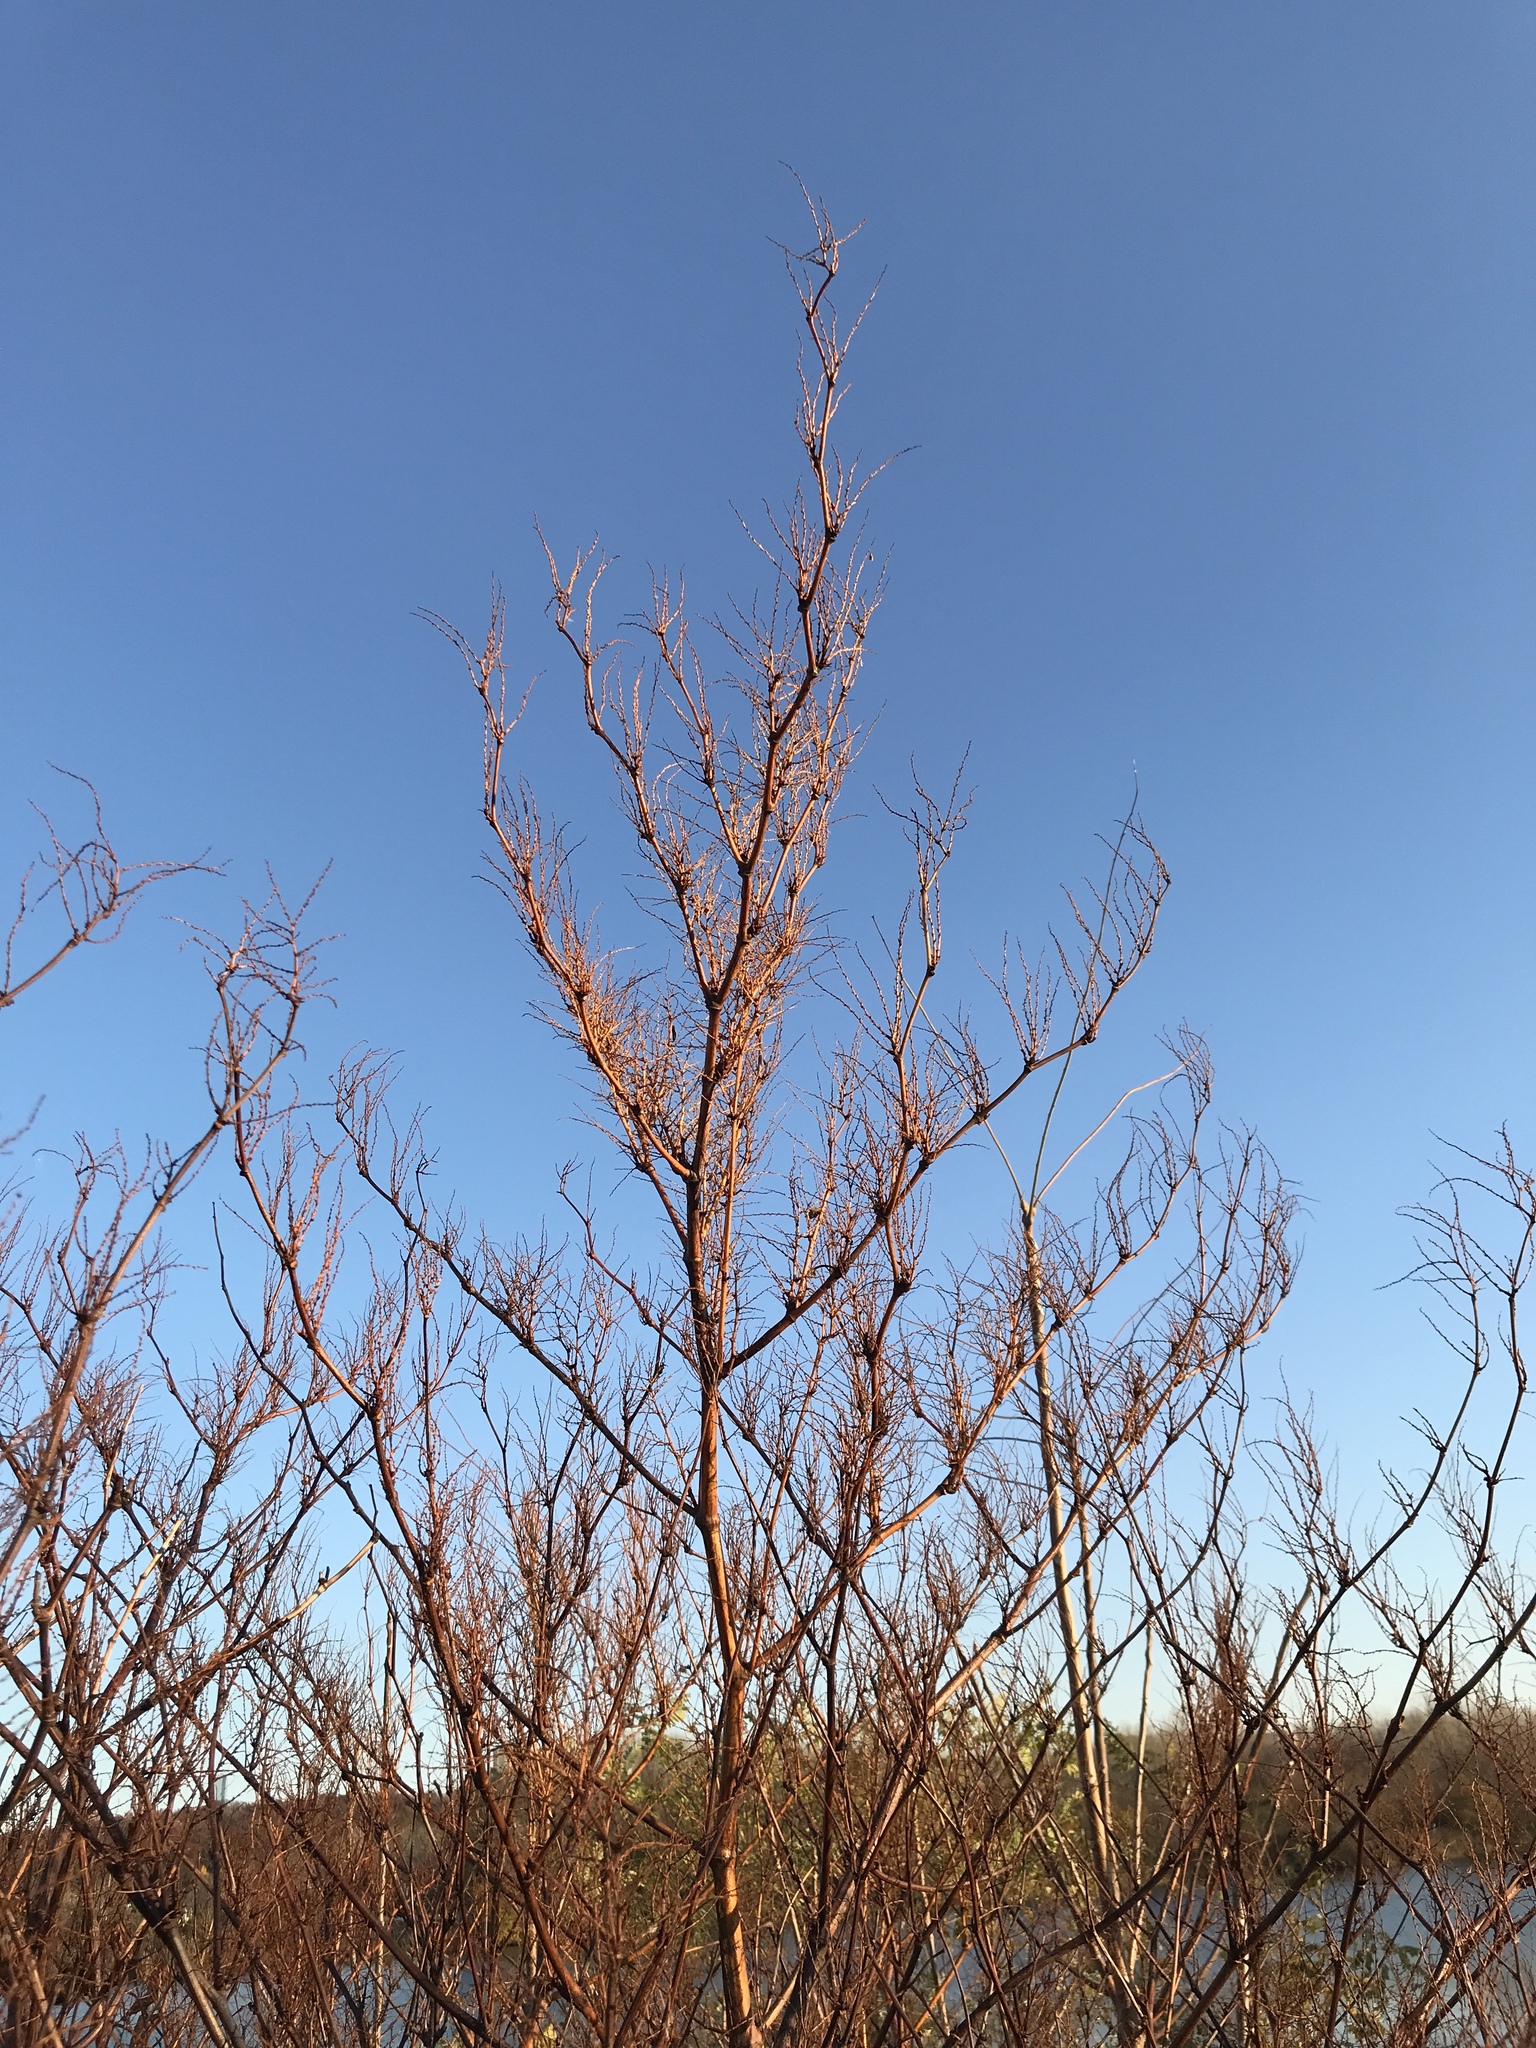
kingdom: Plantae
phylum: Tracheophyta
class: Magnoliopsida
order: Caryophyllales
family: Polygonaceae
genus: Reynoutria
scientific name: Reynoutria japonica
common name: Japanese knotweed
